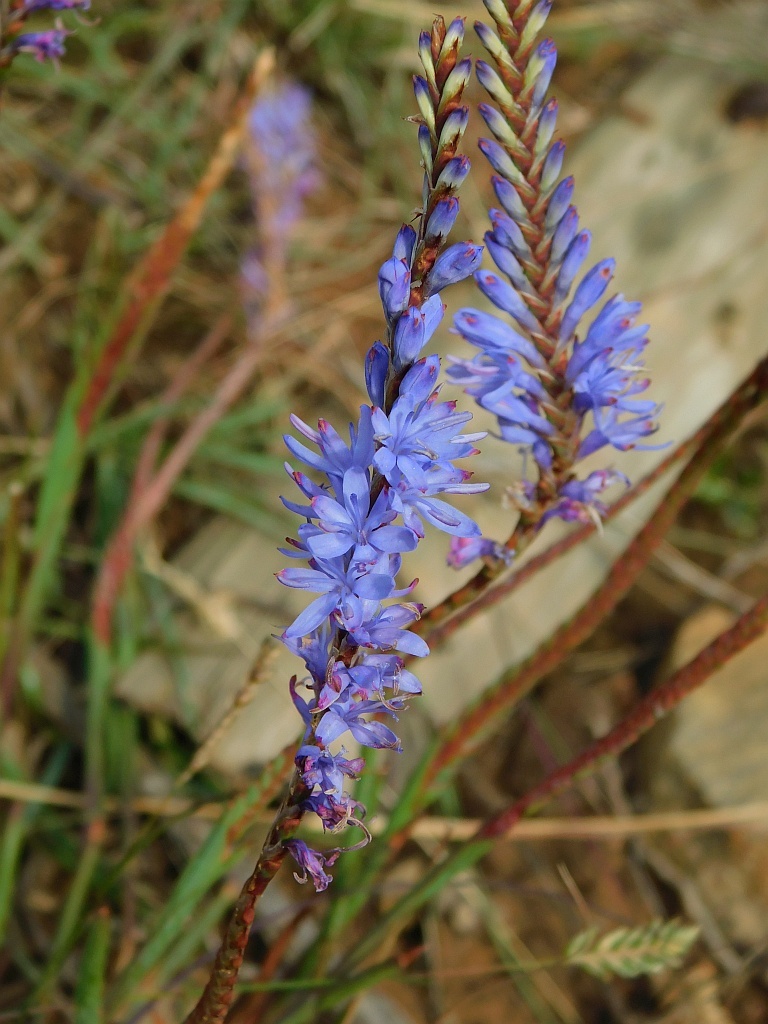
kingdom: Plantae
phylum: Tracheophyta
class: Liliopsida
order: Asparagales
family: Iridaceae
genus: Micranthus
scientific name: Micranthus plantagineus
